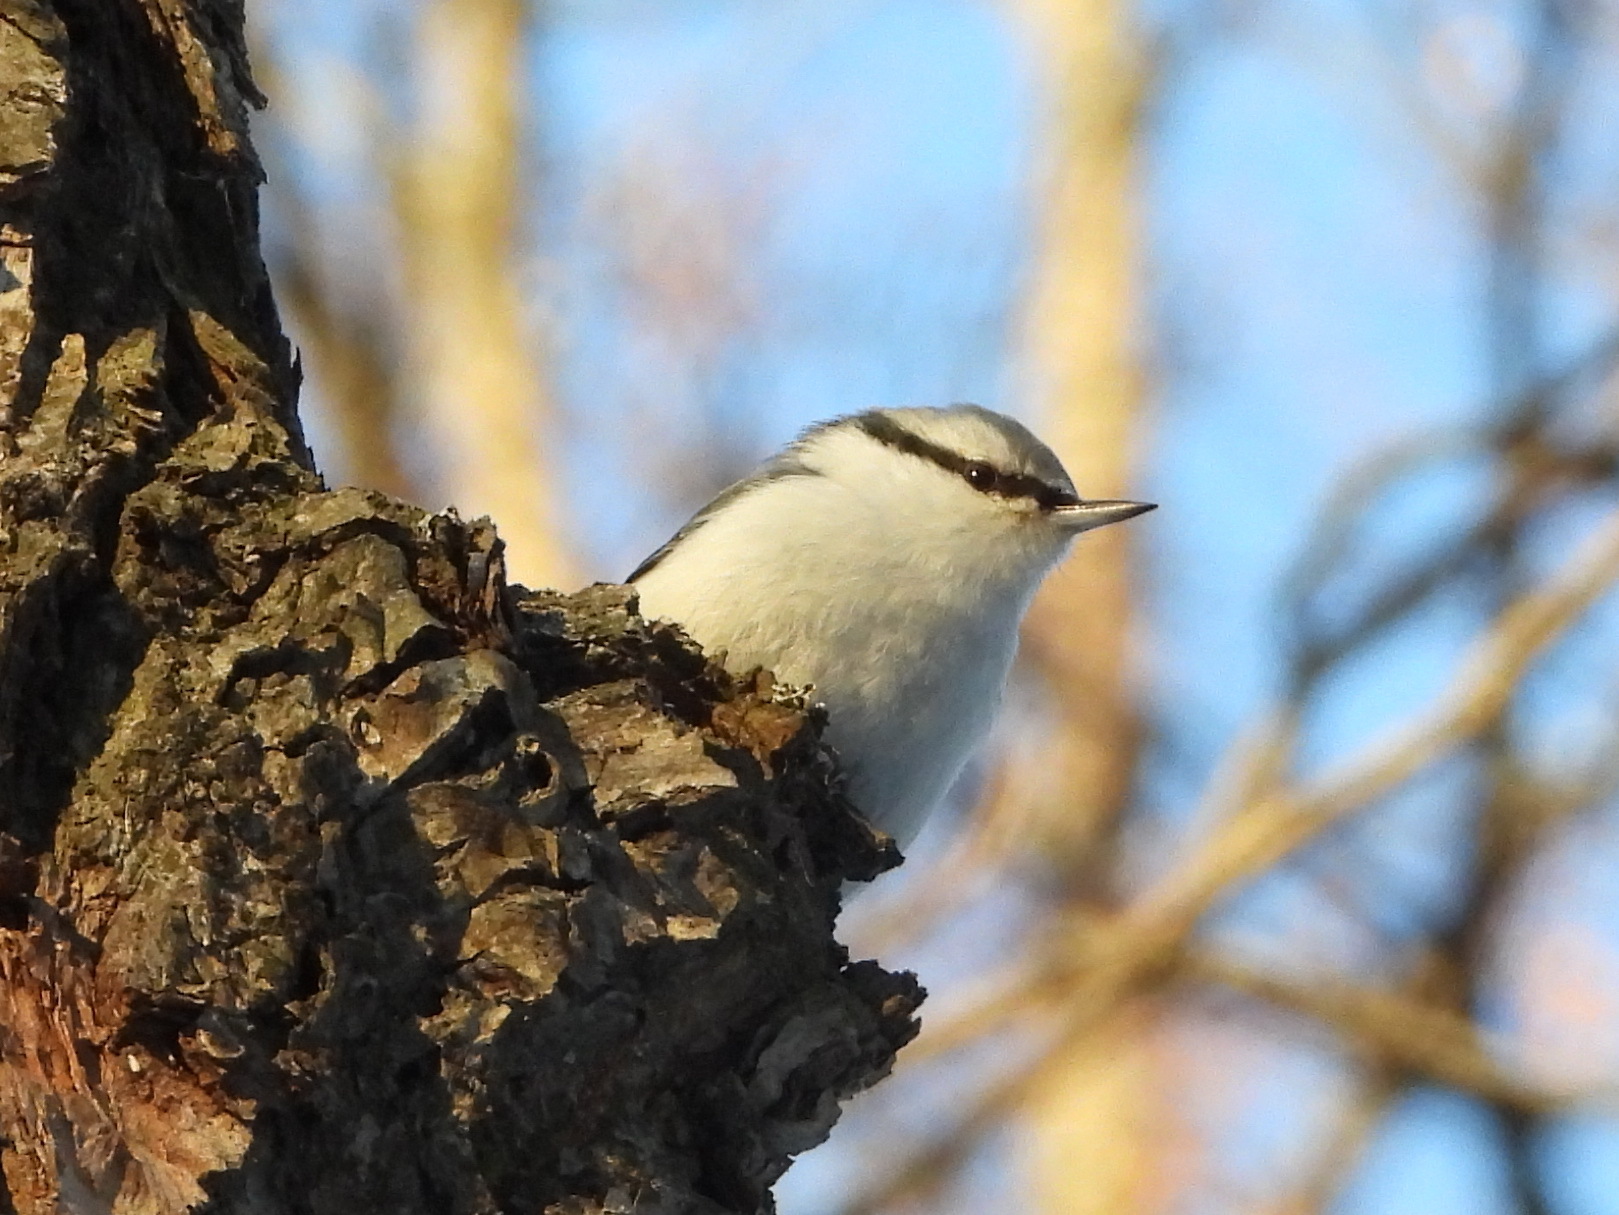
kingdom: Animalia
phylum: Chordata
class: Aves
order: Passeriformes
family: Sittidae
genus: Sitta
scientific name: Sitta europaea
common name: Eurasian nuthatch
